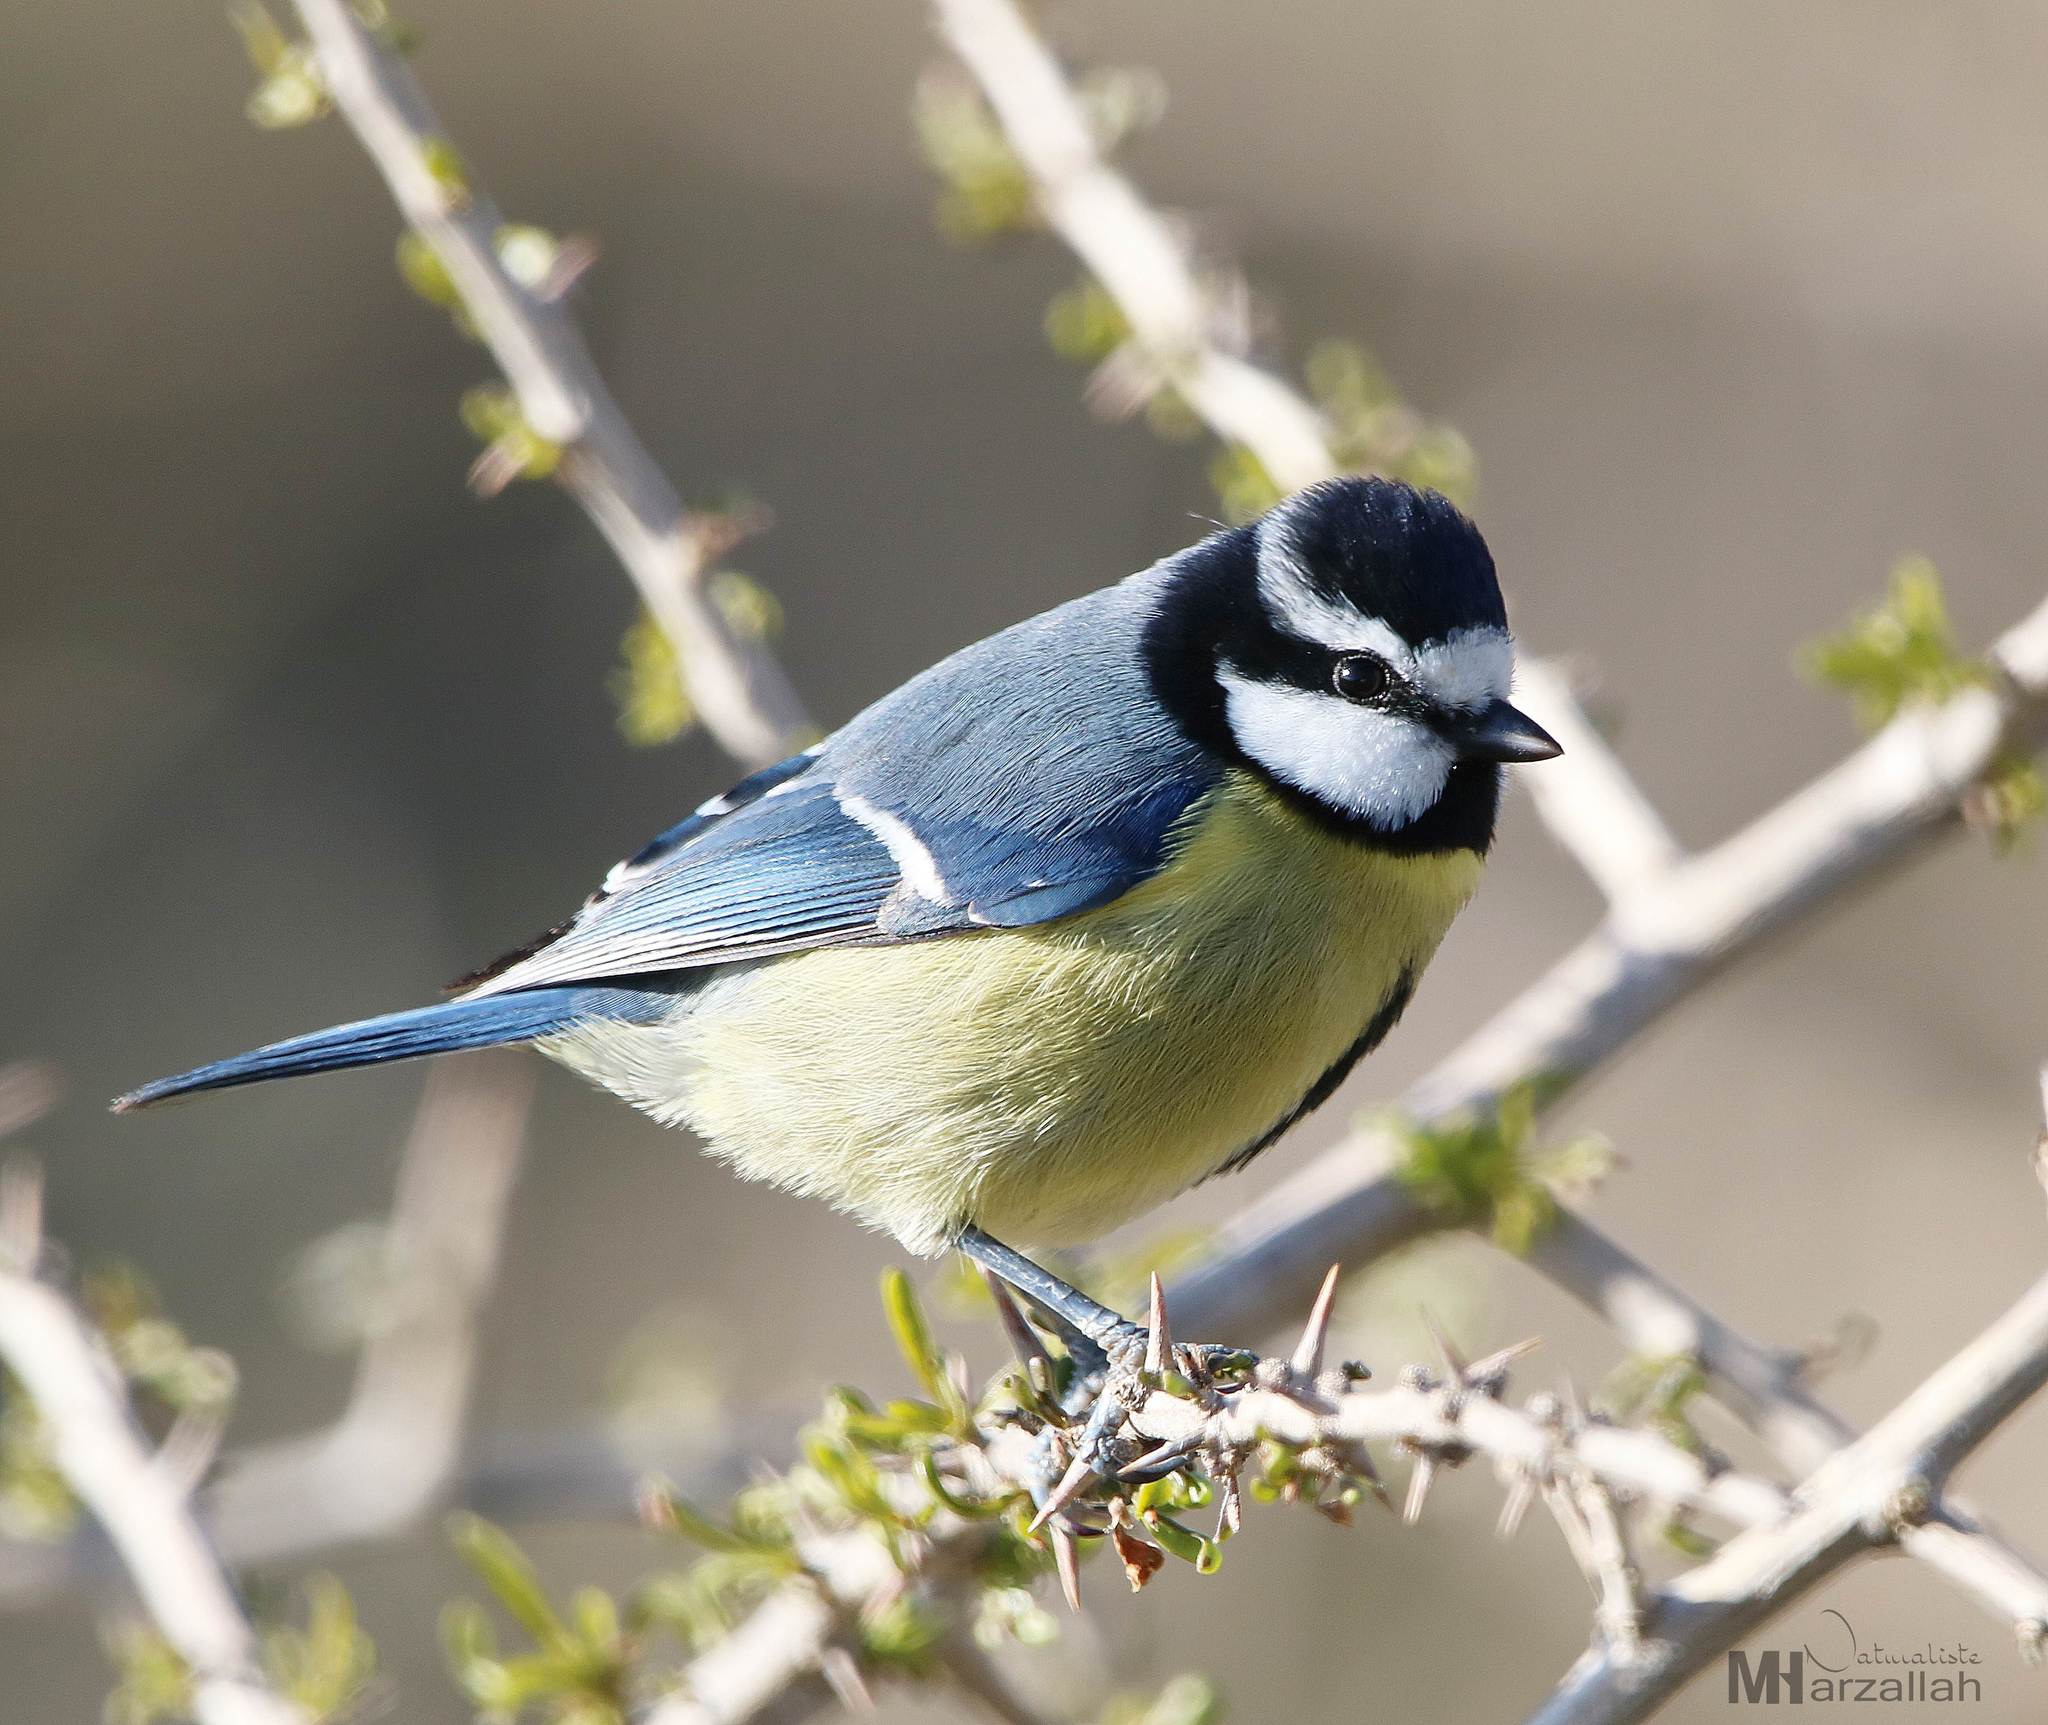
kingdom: Animalia
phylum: Chordata
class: Aves
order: Passeriformes
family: Paridae
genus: Cyanistes
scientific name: Cyanistes teneriffae
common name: African blue tit
